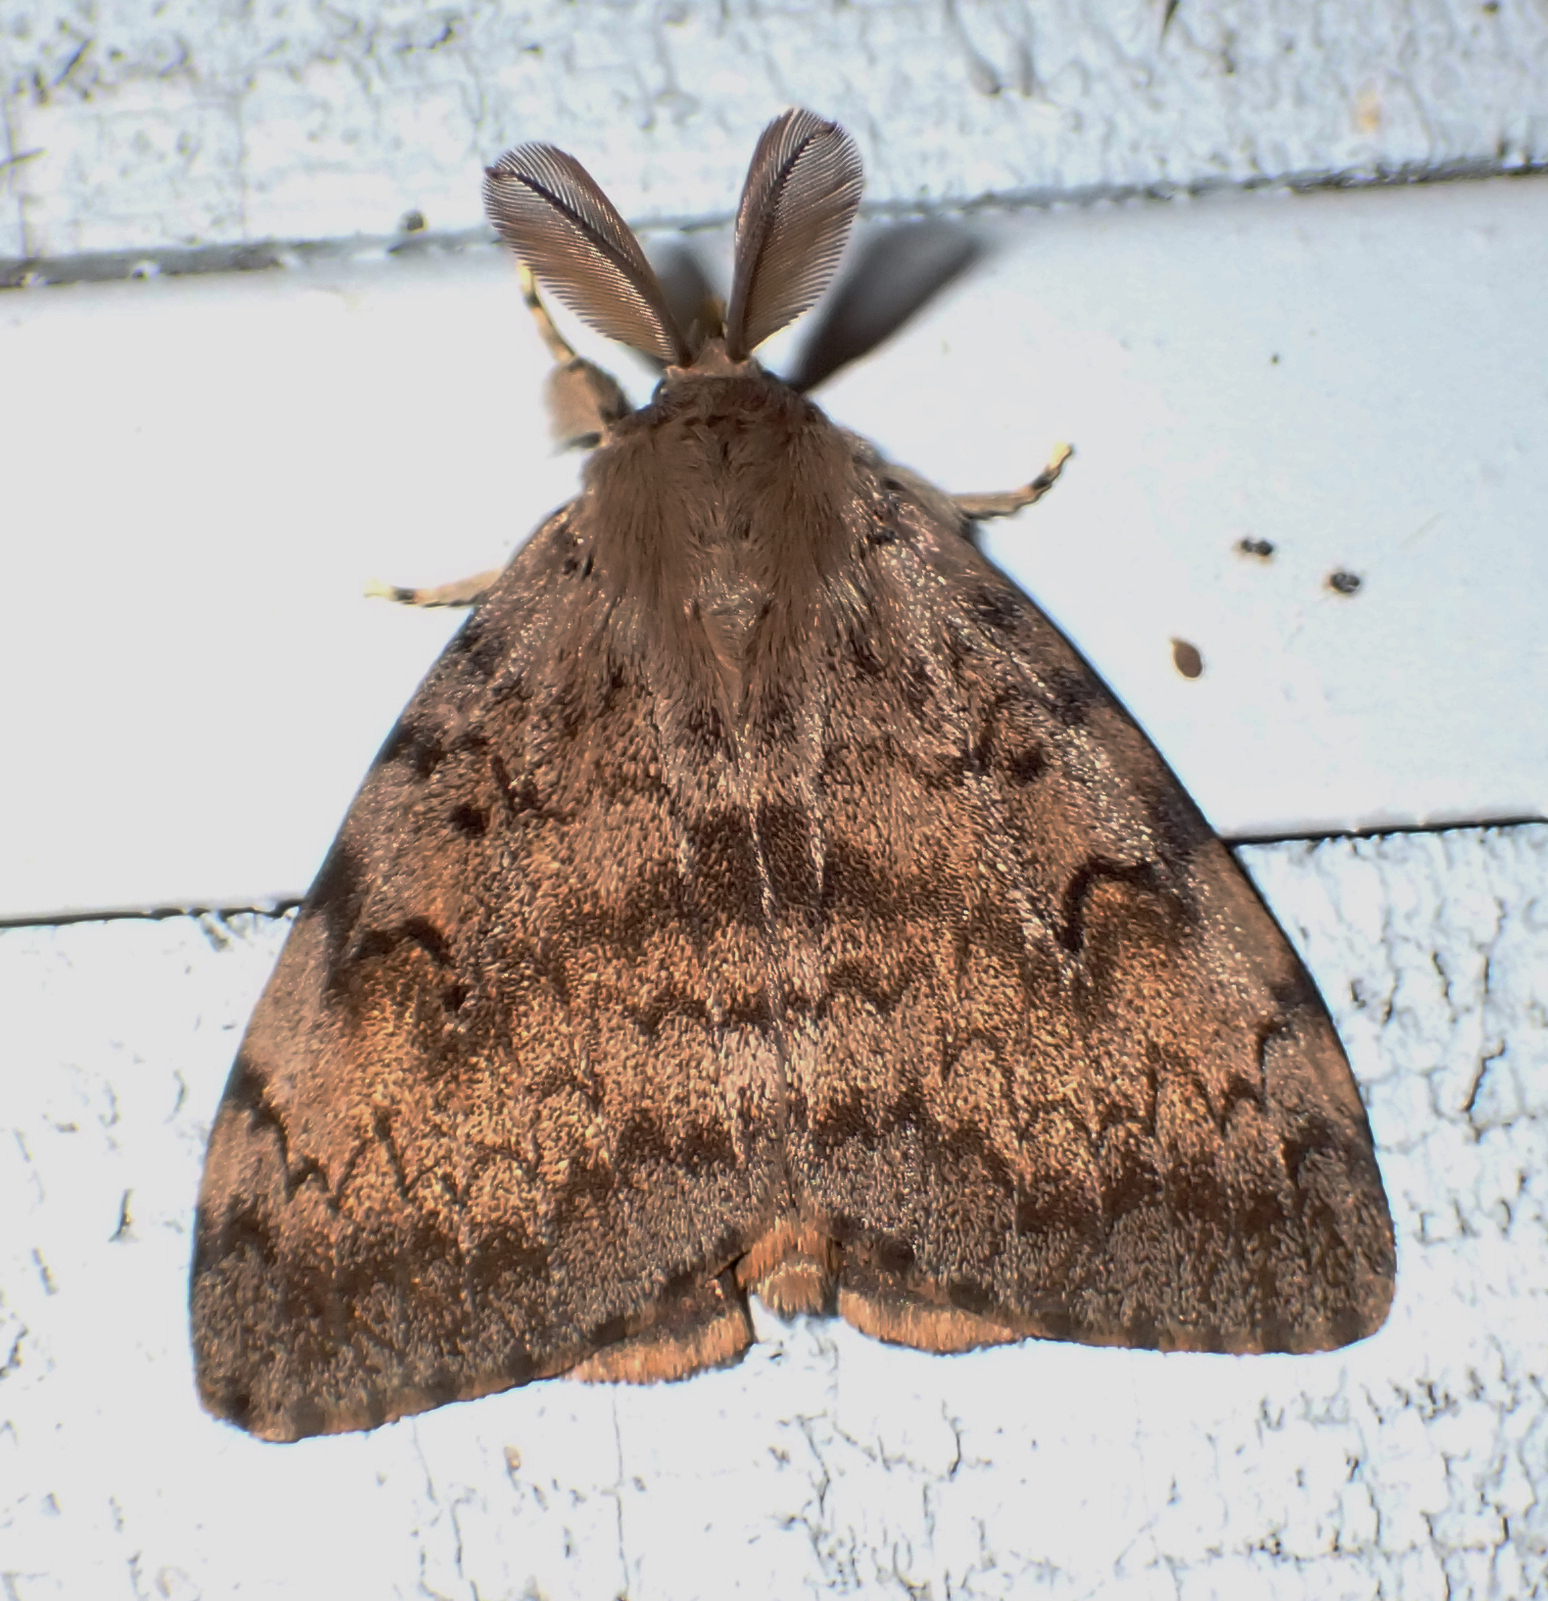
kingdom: Animalia
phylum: Arthropoda
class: Insecta
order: Lepidoptera
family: Erebidae
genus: Lymantria
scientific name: Lymantria dispar
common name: Gypsy moth
